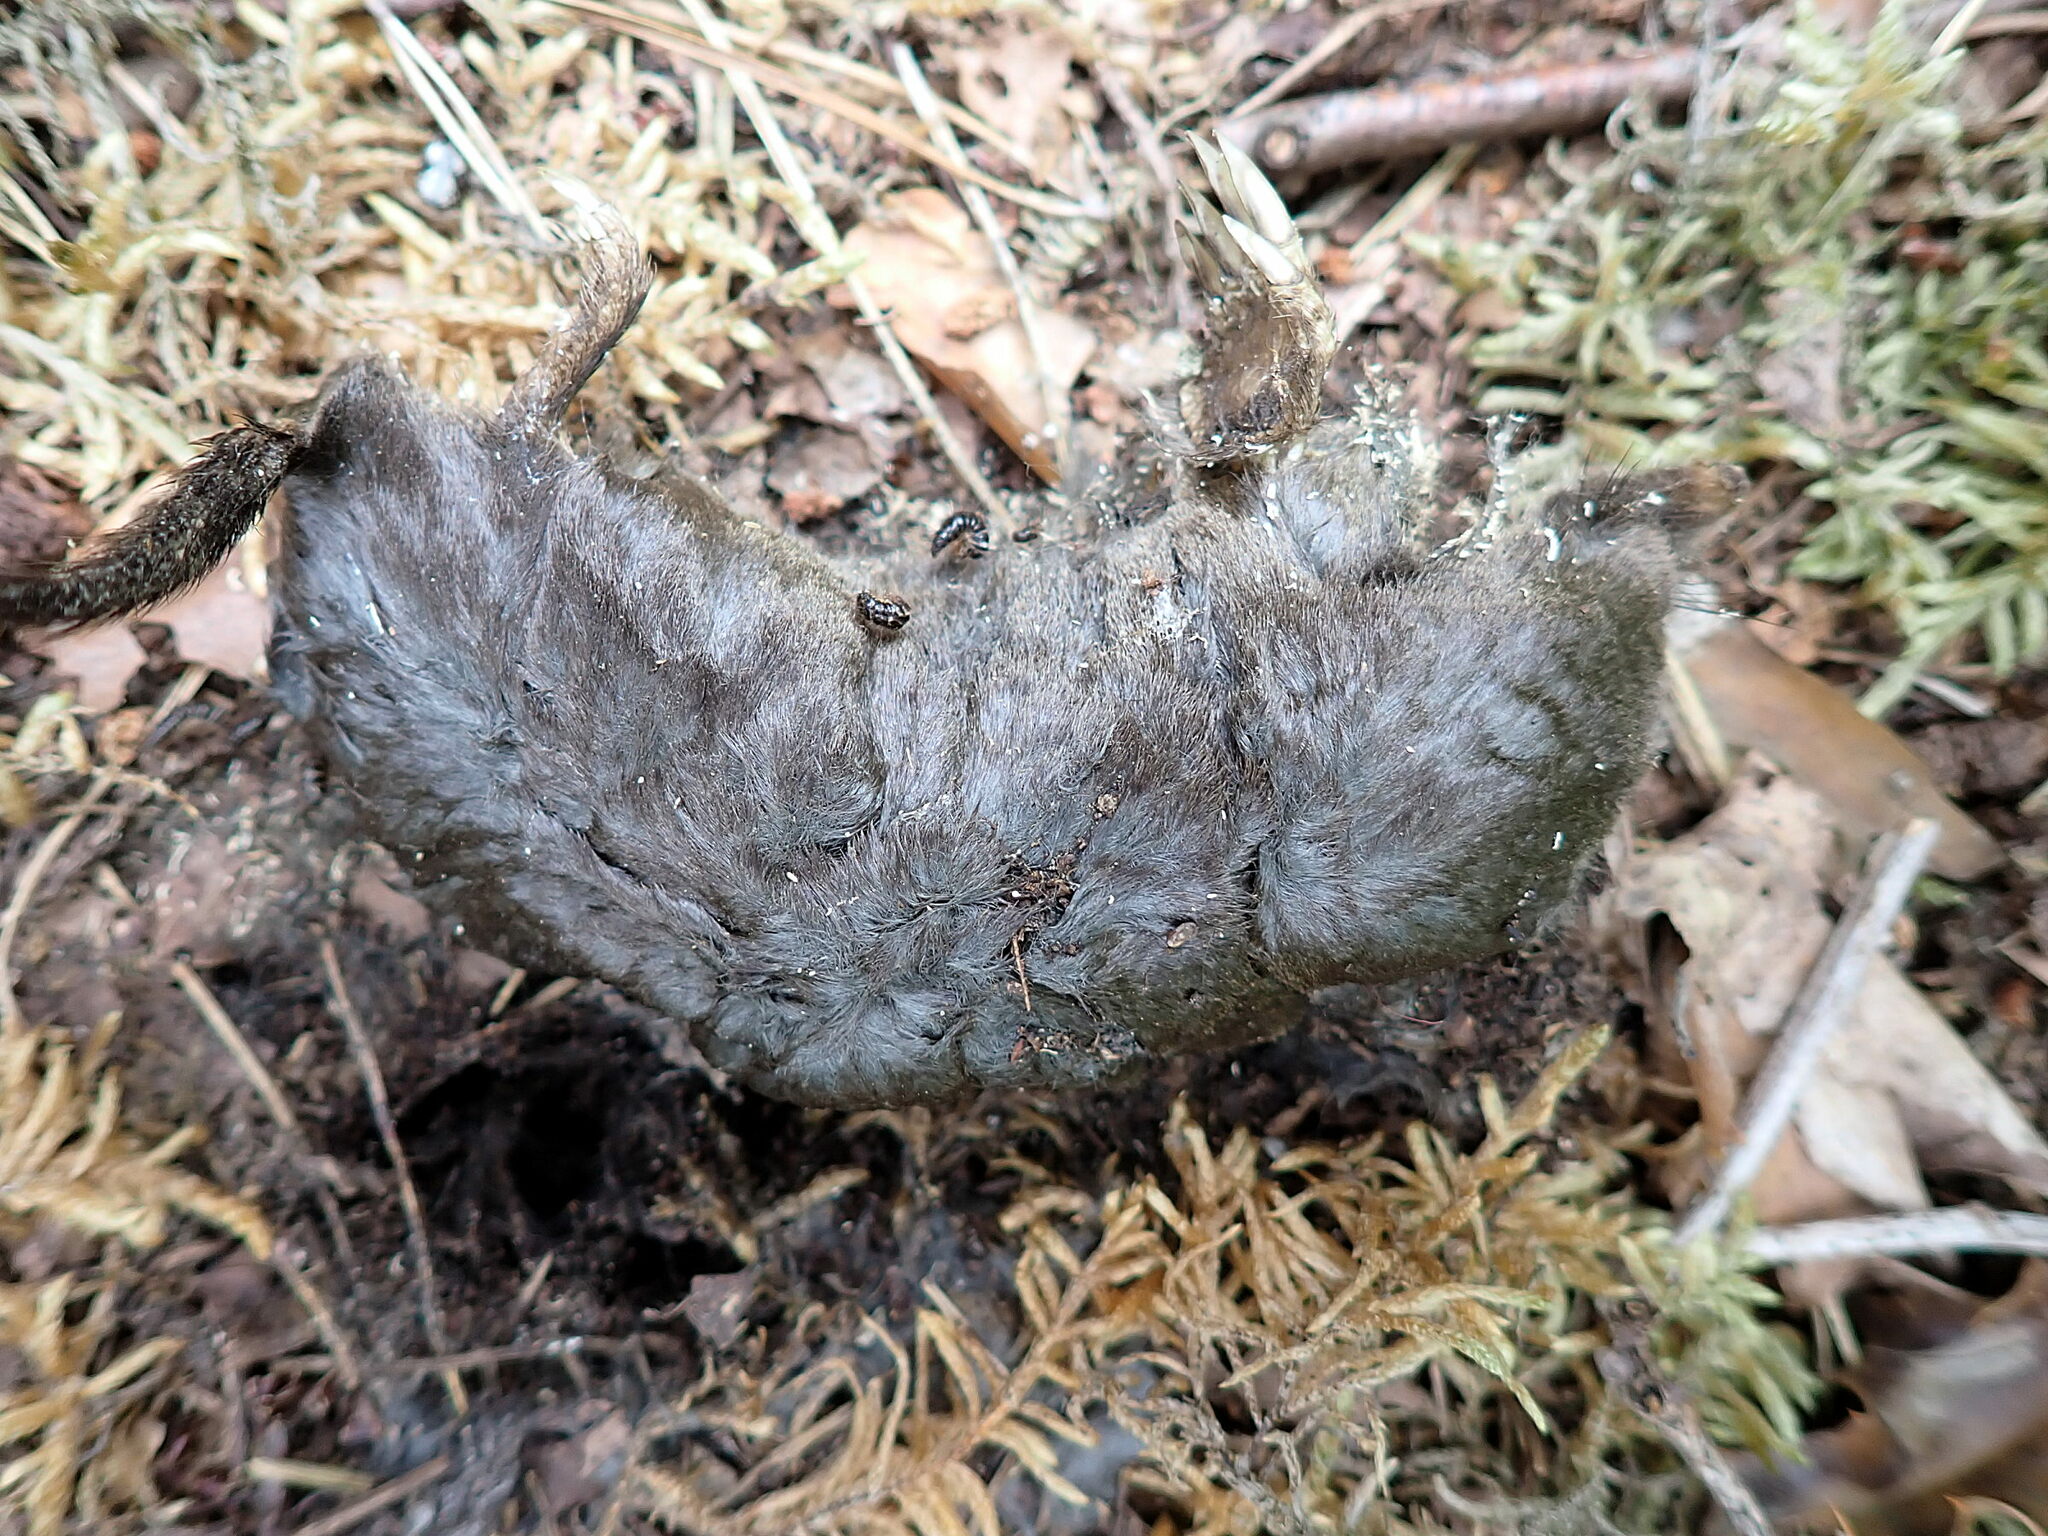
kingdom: Animalia
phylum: Chordata
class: Mammalia
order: Soricomorpha
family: Talpidae
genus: Talpa
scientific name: Talpa europaea
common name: European mole
